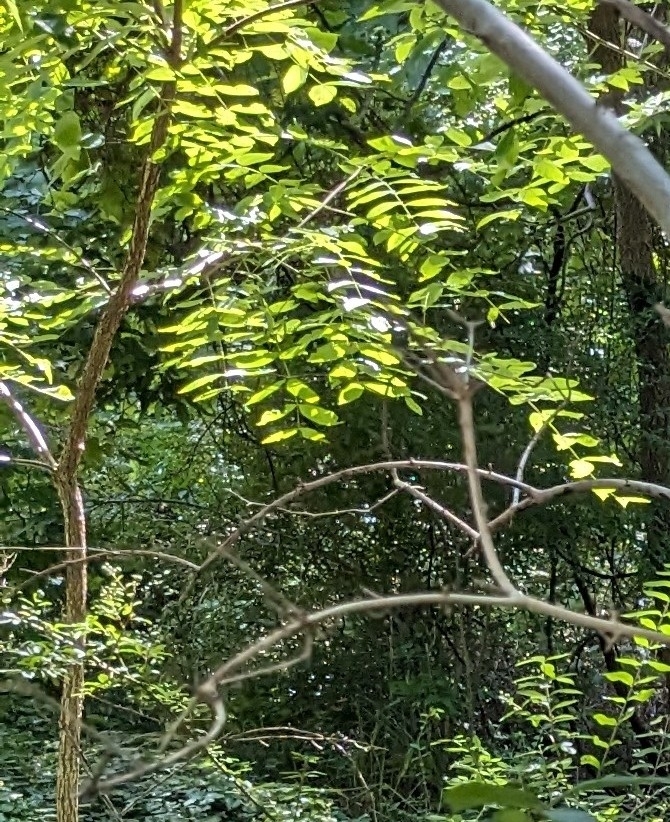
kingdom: Plantae
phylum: Tracheophyta
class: Magnoliopsida
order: Fabales
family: Fabaceae
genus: Robinia
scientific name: Robinia pseudoacacia
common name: Black locust
